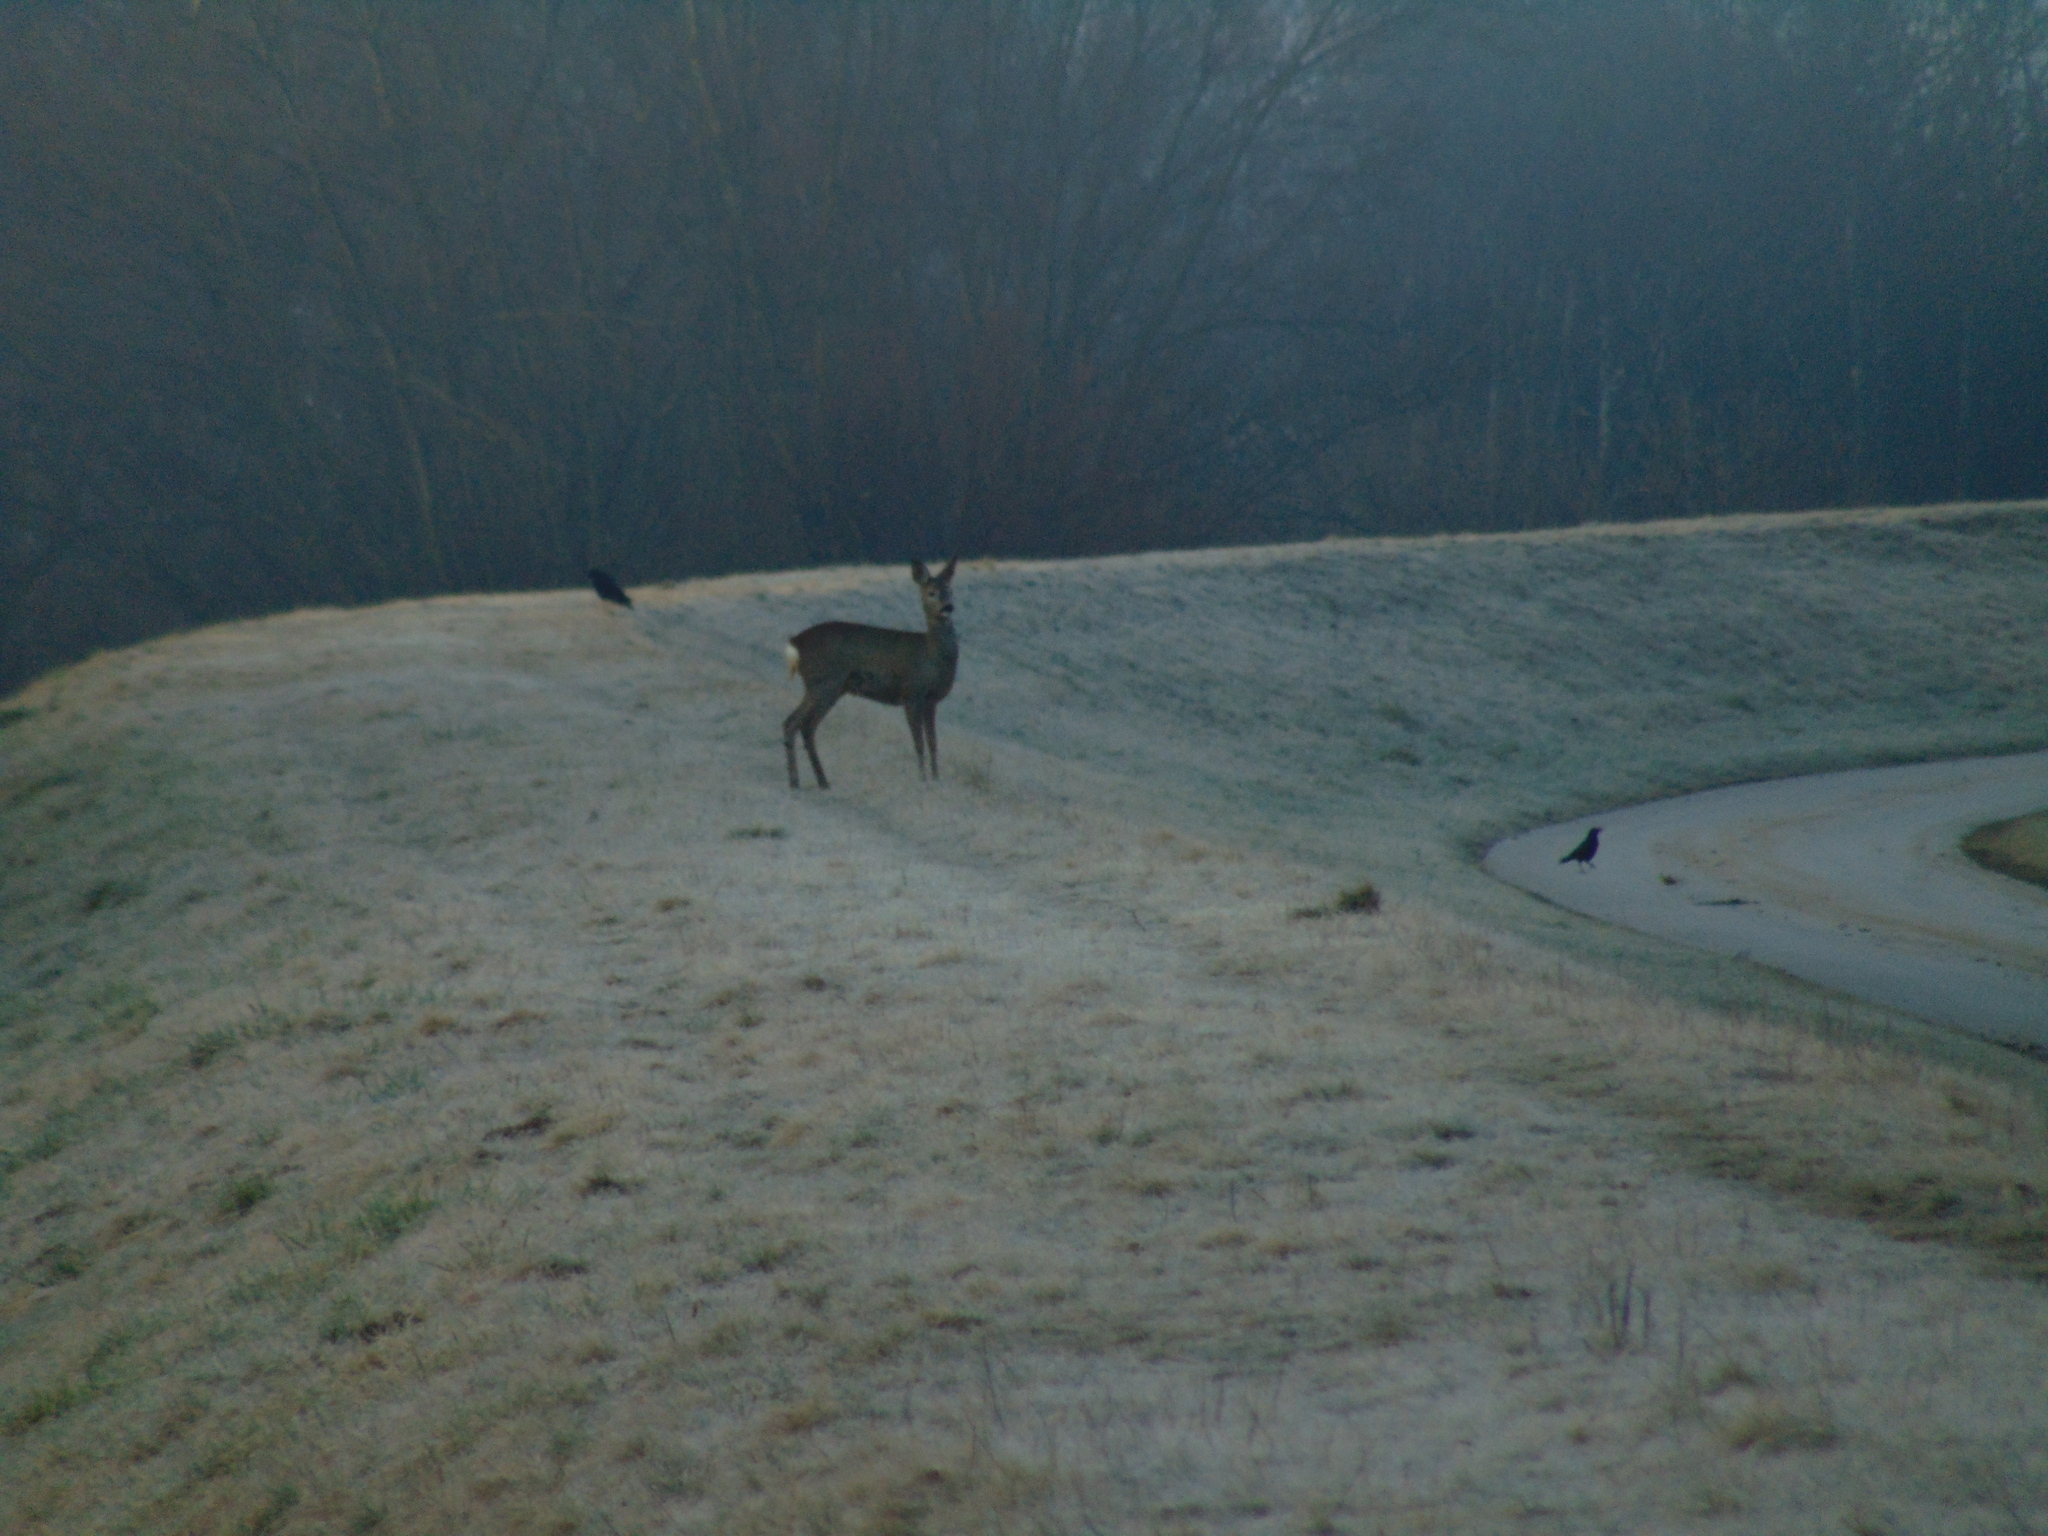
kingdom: Animalia
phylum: Chordata
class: Mammalia
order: Artiodactyla
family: Cervidae
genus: Capreolus
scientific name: Capreolus capreolus
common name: Western roe deer
